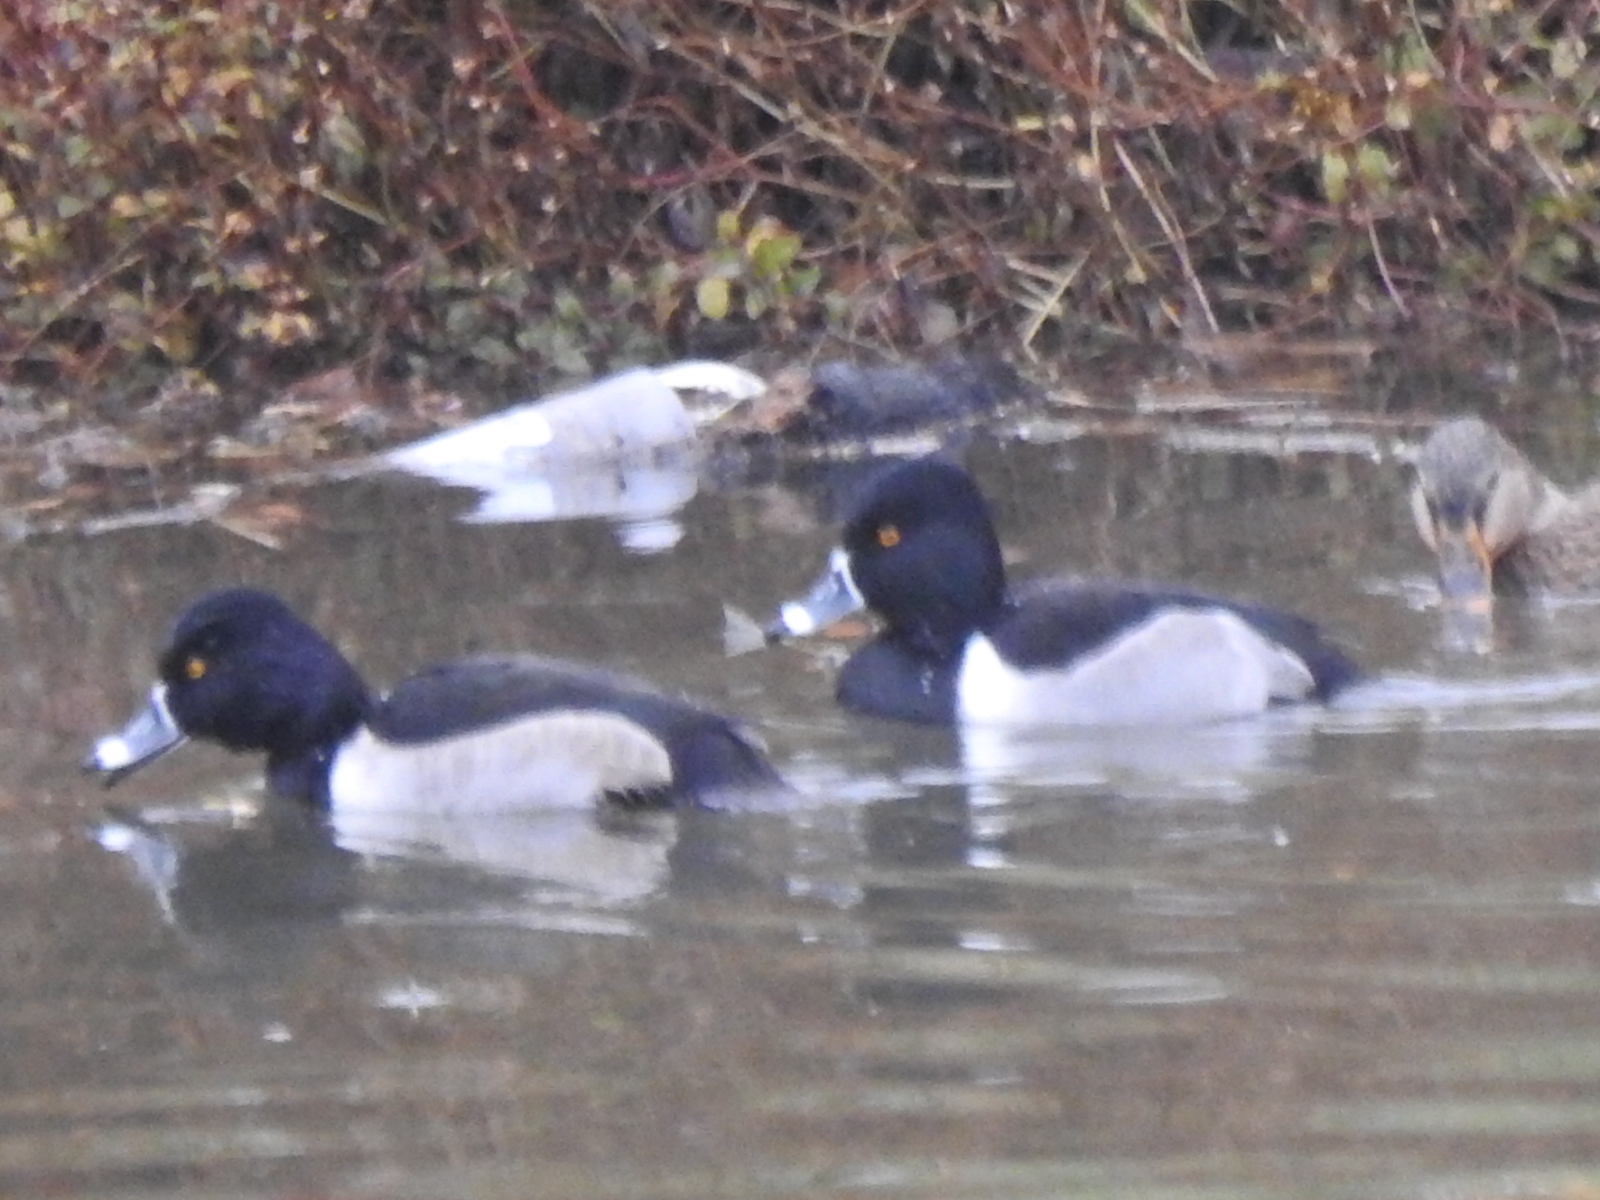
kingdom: Animalia
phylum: Chordata
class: Aves
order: Anseriformes
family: Anatidae
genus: Aythya
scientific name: Aythya collaris
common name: Ring-necked duck
